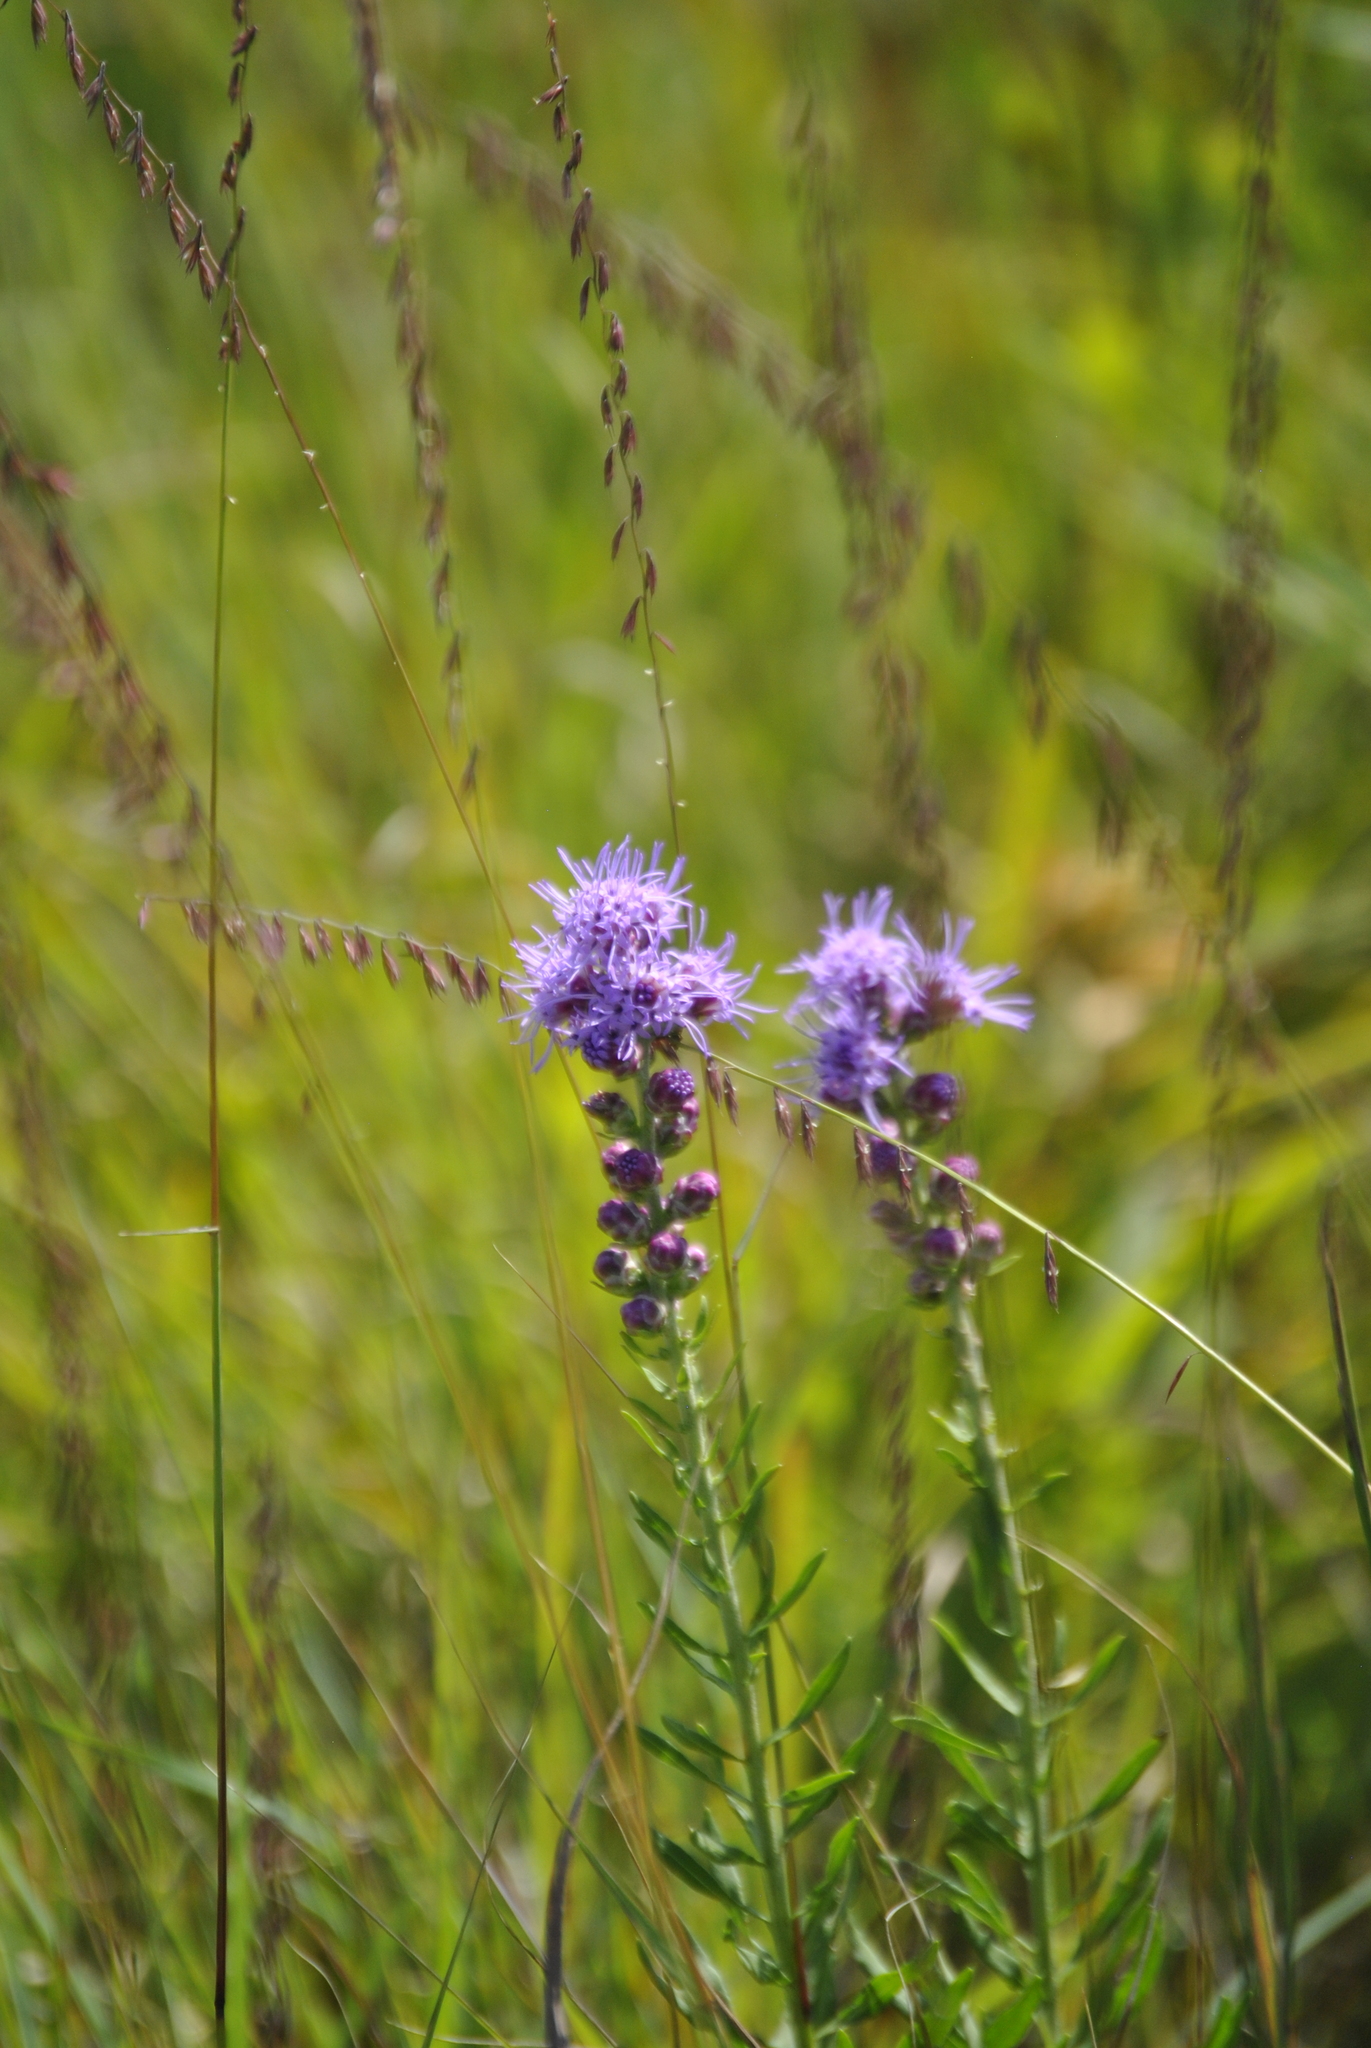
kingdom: Plantae
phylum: Tracheophyta
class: Magnoliopsida
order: Asterales
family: Asteraceae
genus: Liatris
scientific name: Liatris spicata
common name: Florist gayfeather
